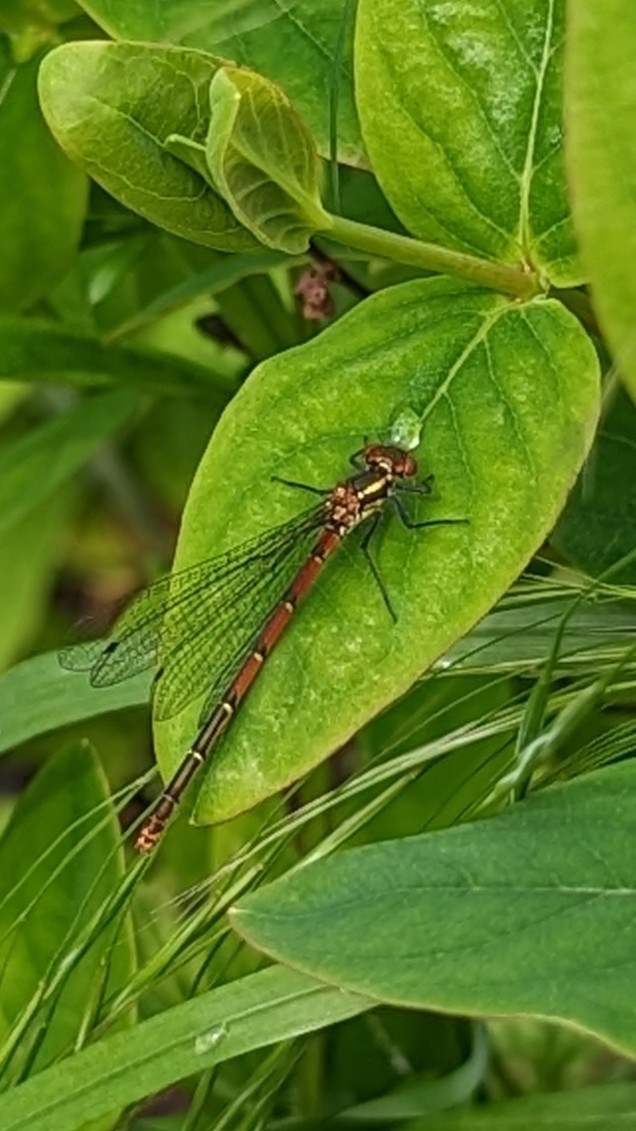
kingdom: Animalia
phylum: Arthropoda
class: Insecta
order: Odonata
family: Coenagrionidae
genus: Pyrrhosoma
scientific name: Pyrrhosoma nymphula
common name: Large red damsel
